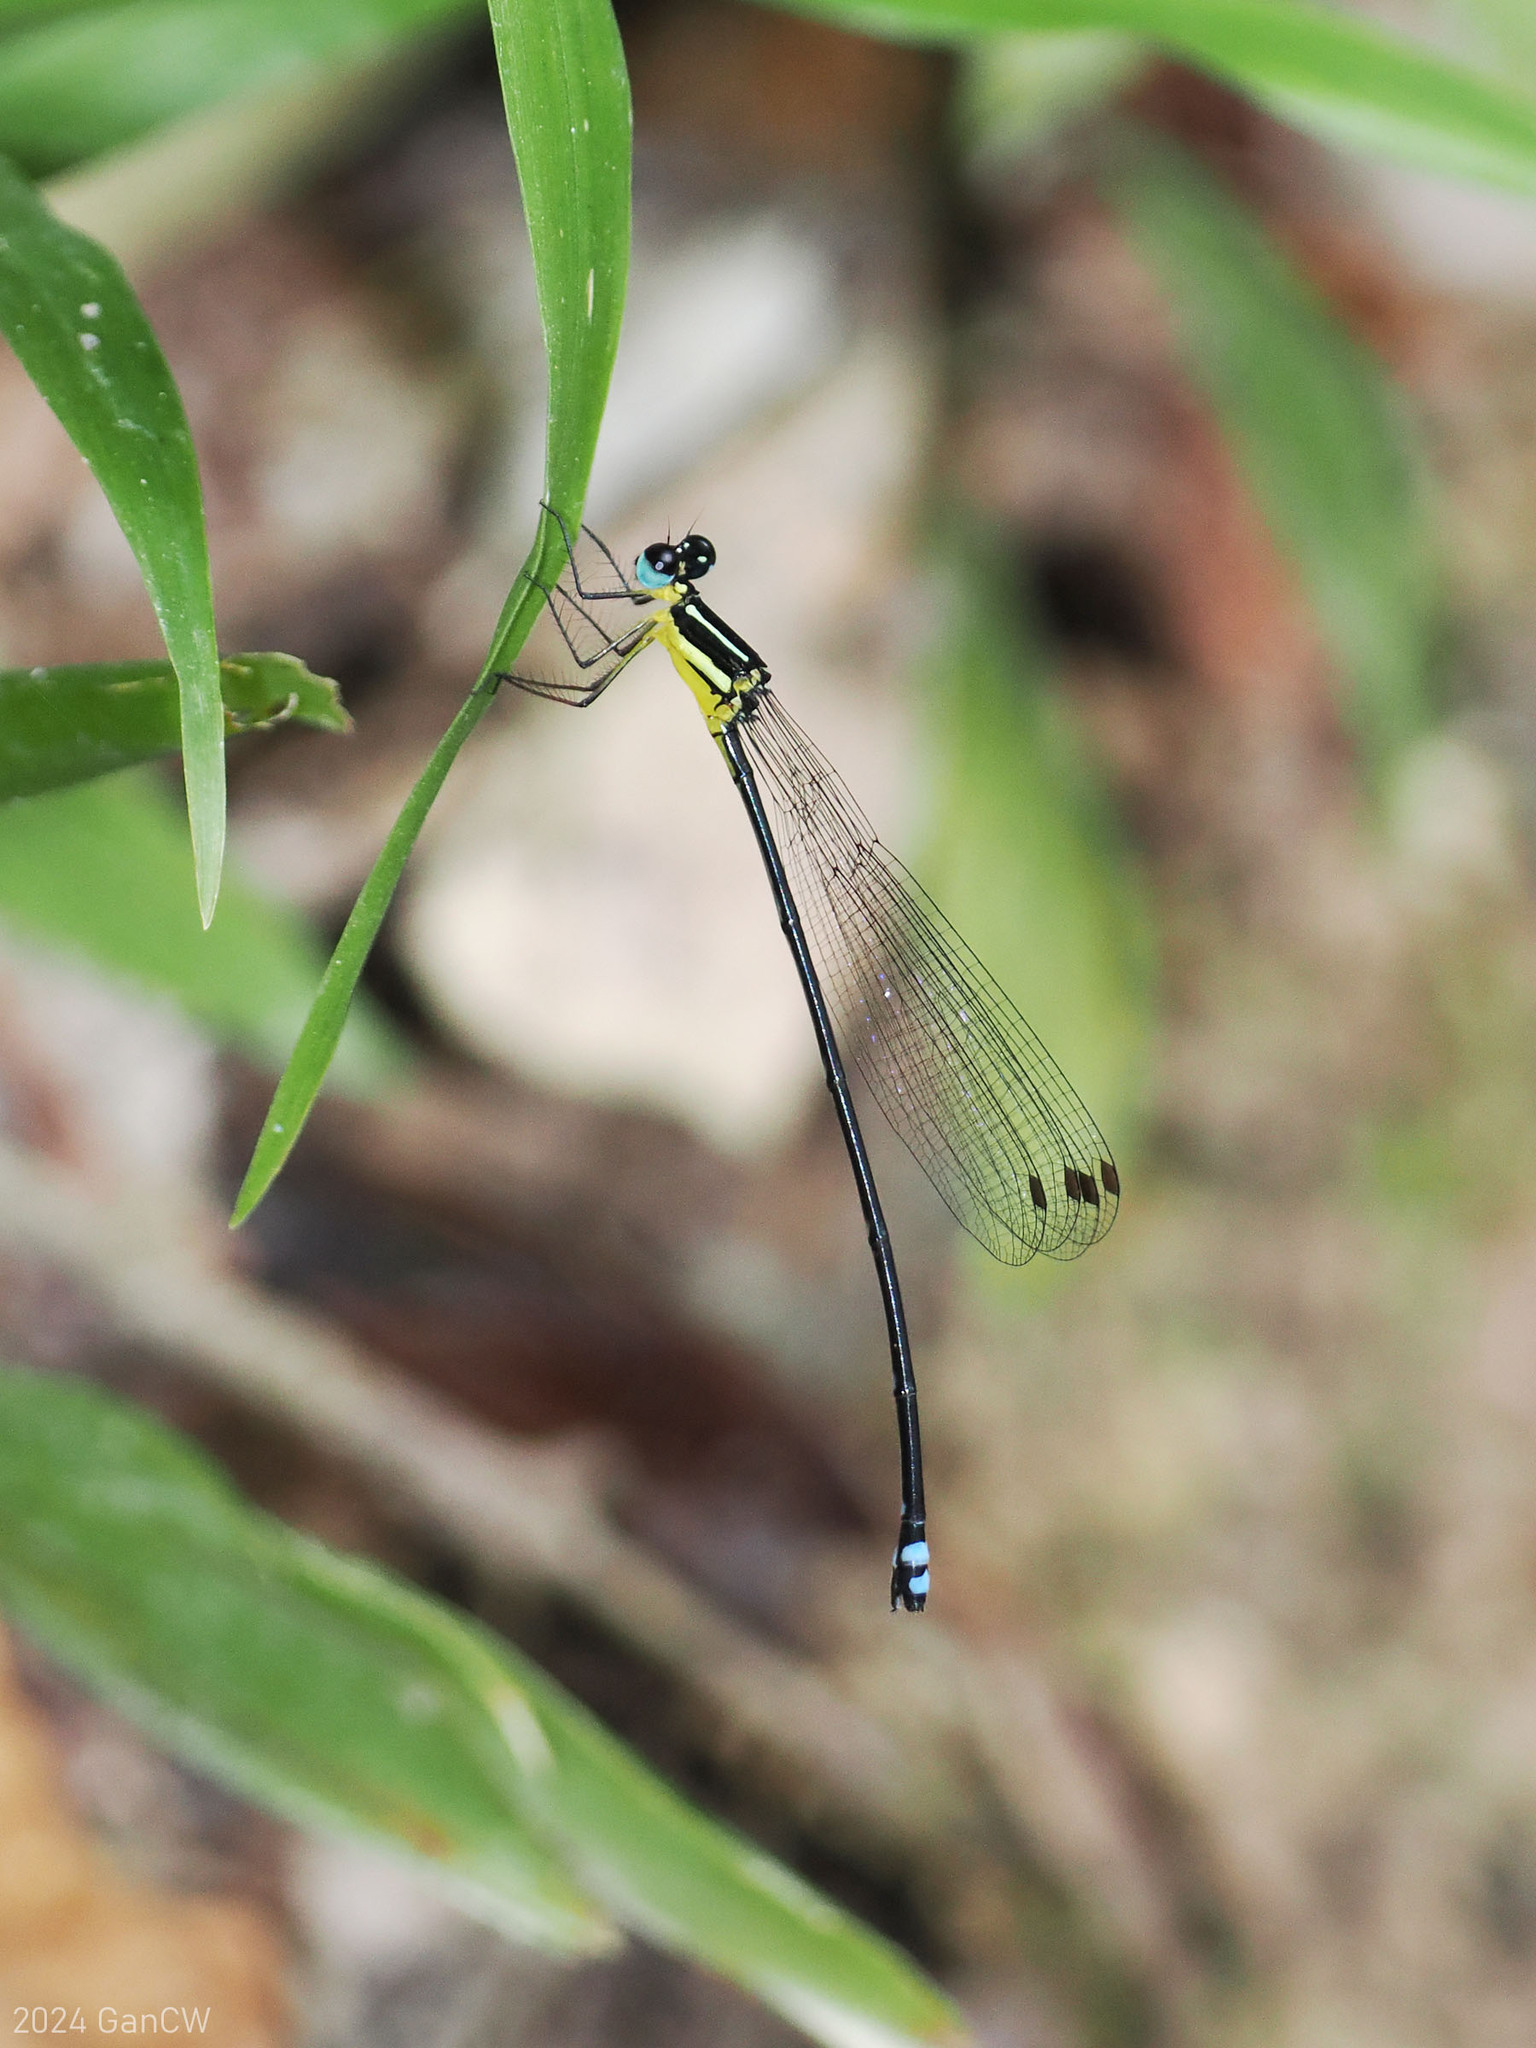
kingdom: Animalia
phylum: Arthropoda
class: Insecta
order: Odonata
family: Platycnemididae
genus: Indocnemis
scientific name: Indocnemis orang
